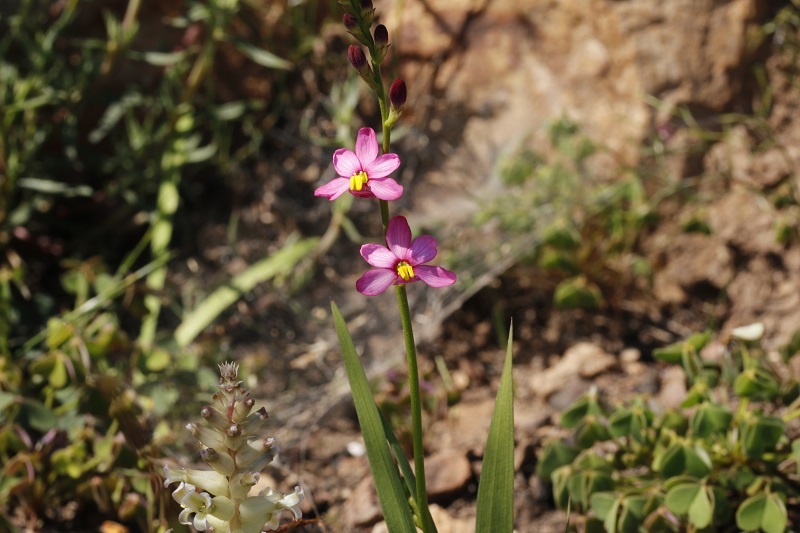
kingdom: Plantae
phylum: Tracheophyta
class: Liliopsida
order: Asparagales
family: Iridaceae
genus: Ixia
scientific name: Ixia scillaris
